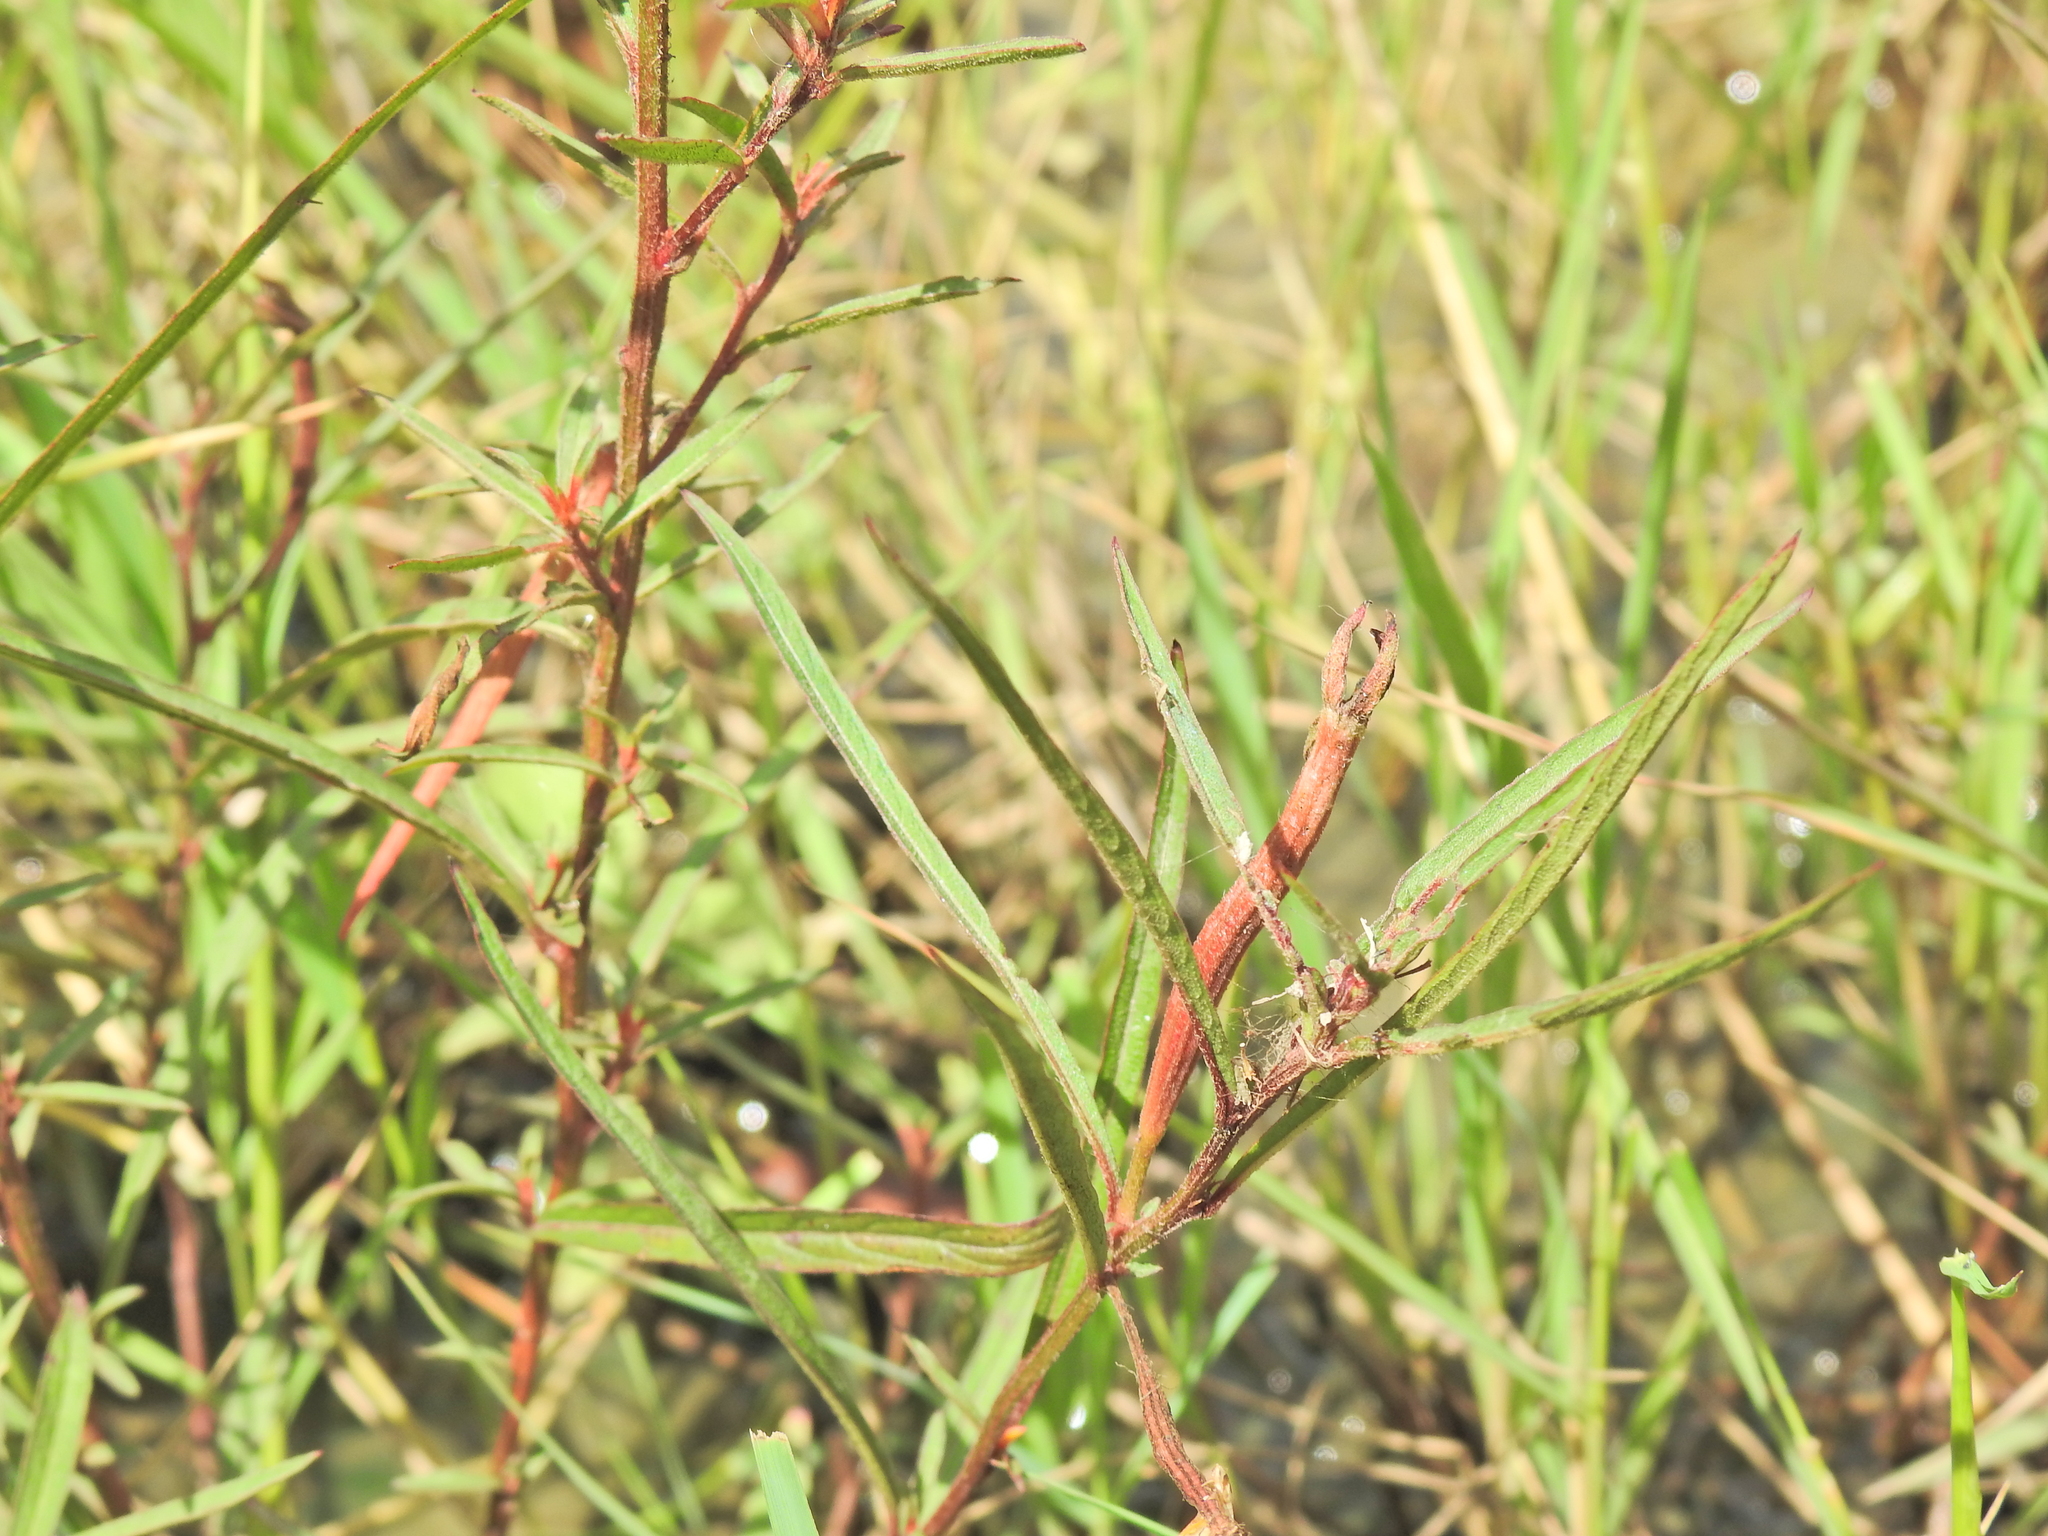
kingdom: Plantae
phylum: Tracheophyta
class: Magnoliopsida
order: Myrtales
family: Onagraceae
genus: Ludwigia
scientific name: Ludwigia octovalvis
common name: Water-primrose
